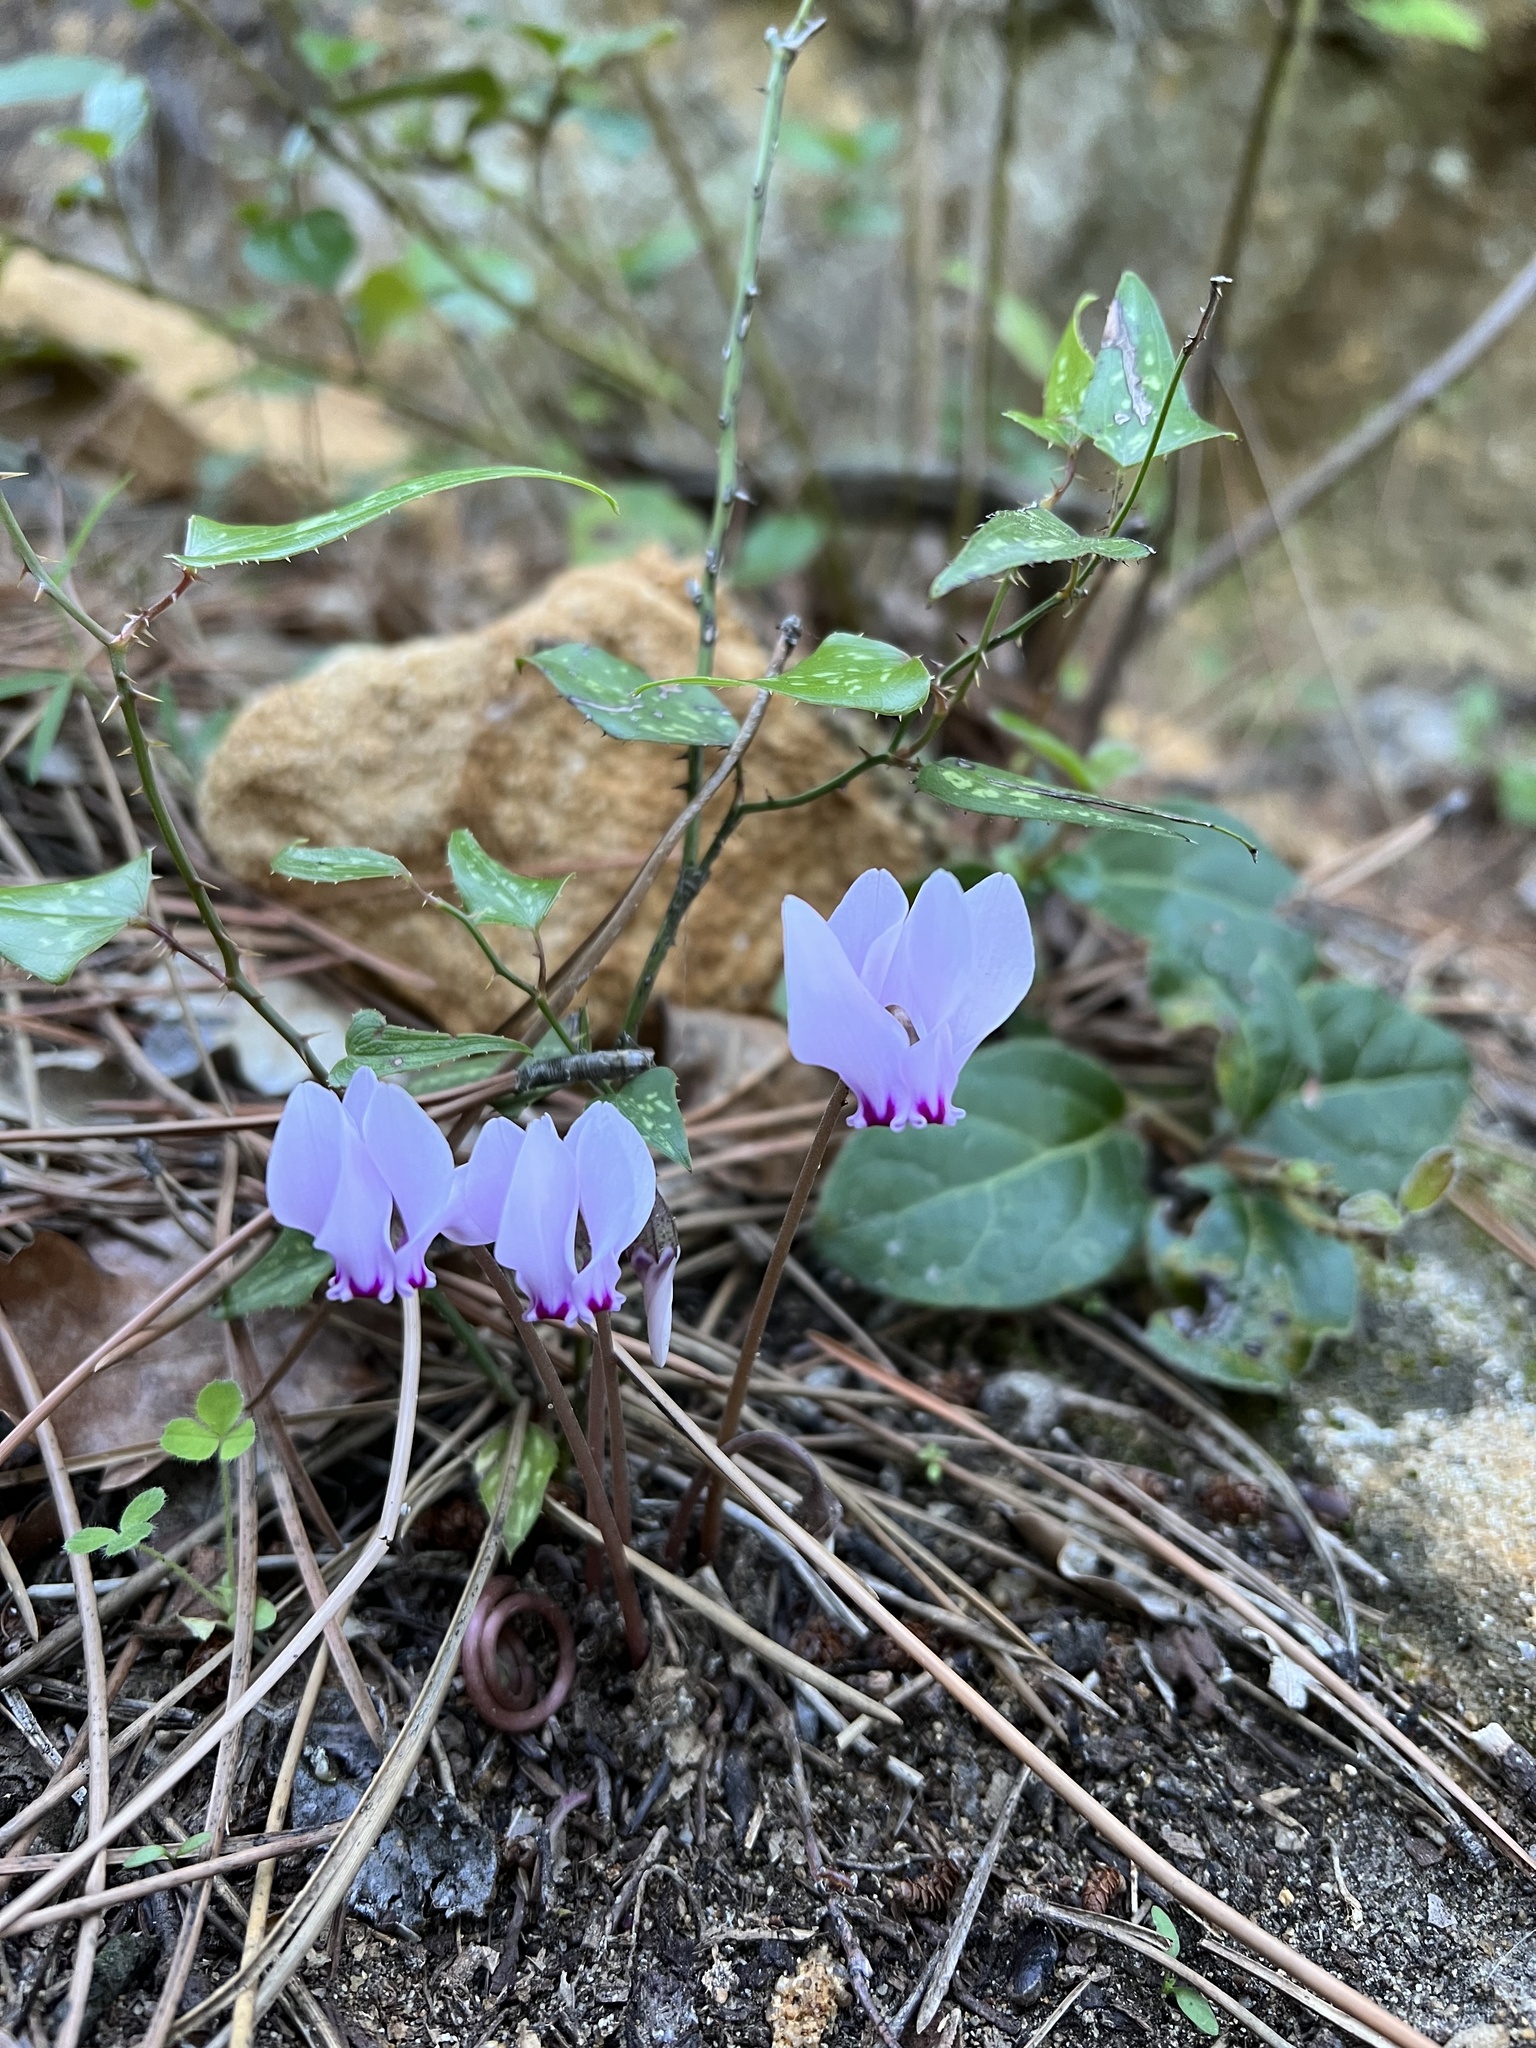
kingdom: Plantae
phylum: Tracheophyta
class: Magnoliopsida
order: Ericales
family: Primulaceae
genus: Cyclamen
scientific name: Cyclamen hederifolium
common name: Sowbread
